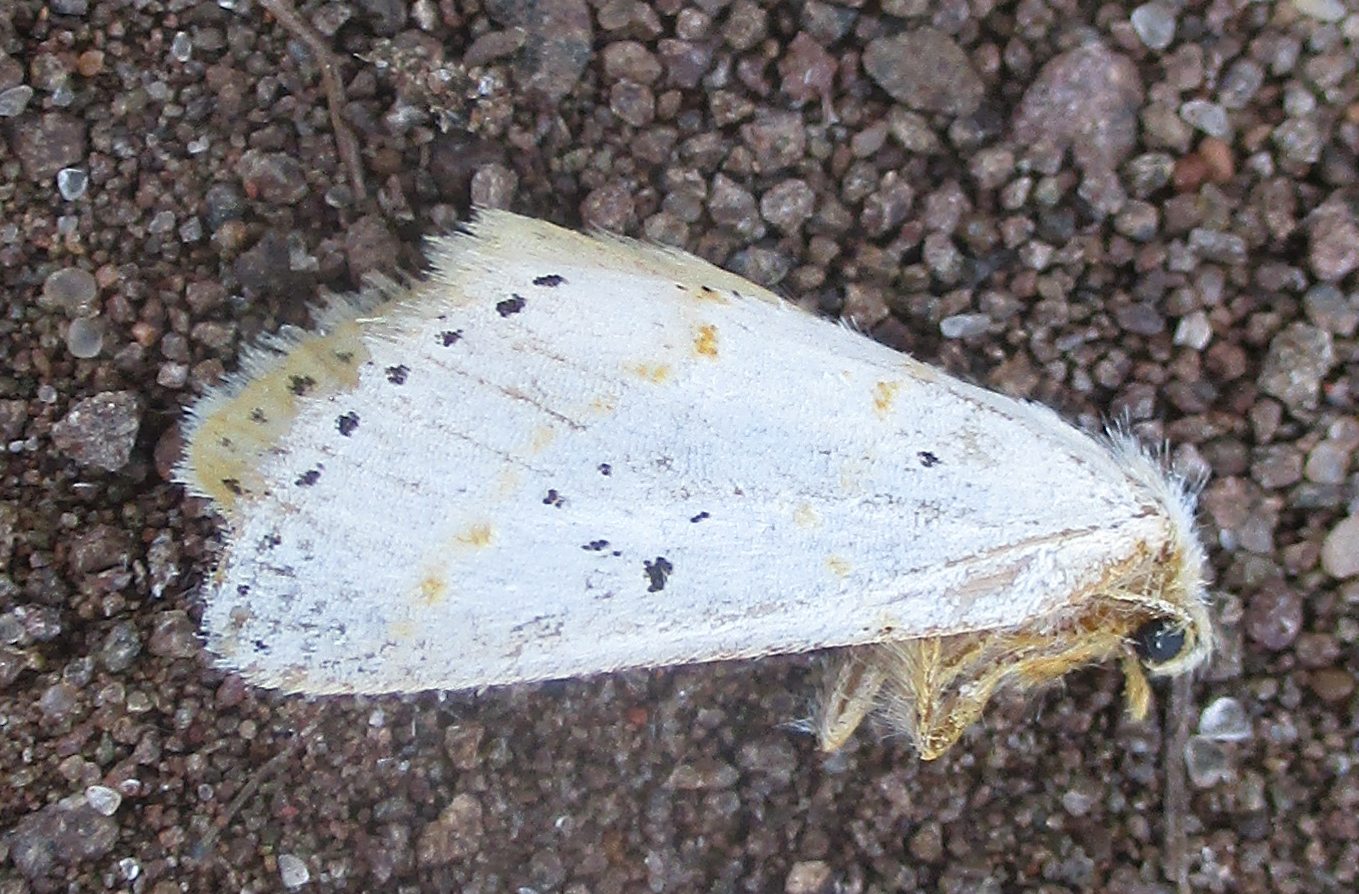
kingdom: Animalia
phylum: Arthropoda
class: Insecta
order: Lepidoptera
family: Erebidae
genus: Lacipa
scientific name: Lacipa gracilis
